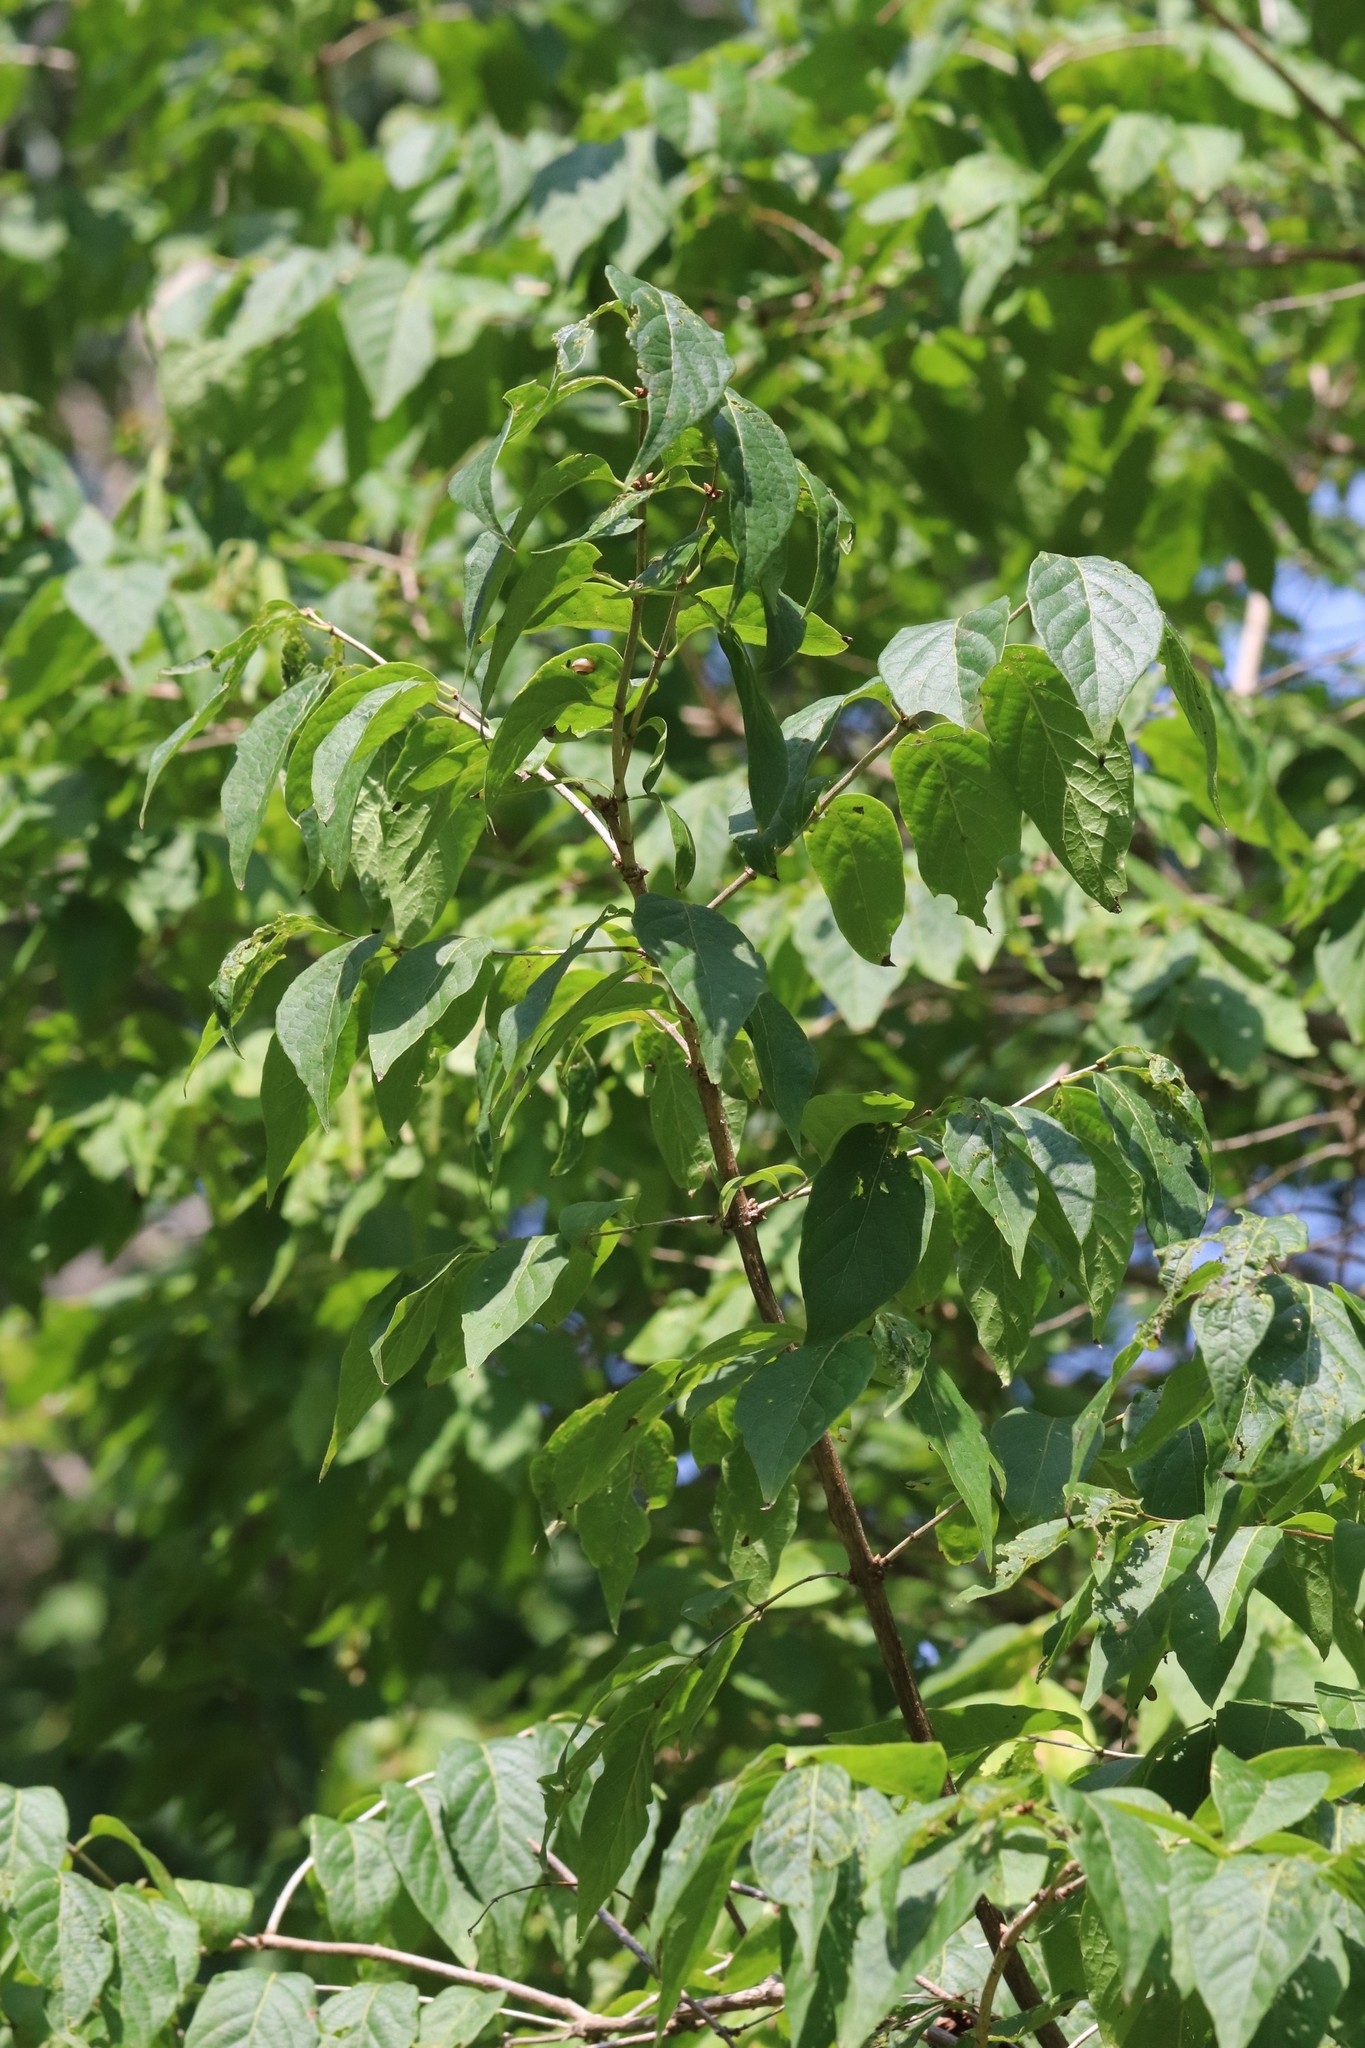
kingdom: Plantae
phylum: Tracheophyta
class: Magnoliopsida
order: Dipsacales
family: Caprifoliaceae
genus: Lonicera
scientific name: Lonicera maackii
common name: Amur honeysuckle
